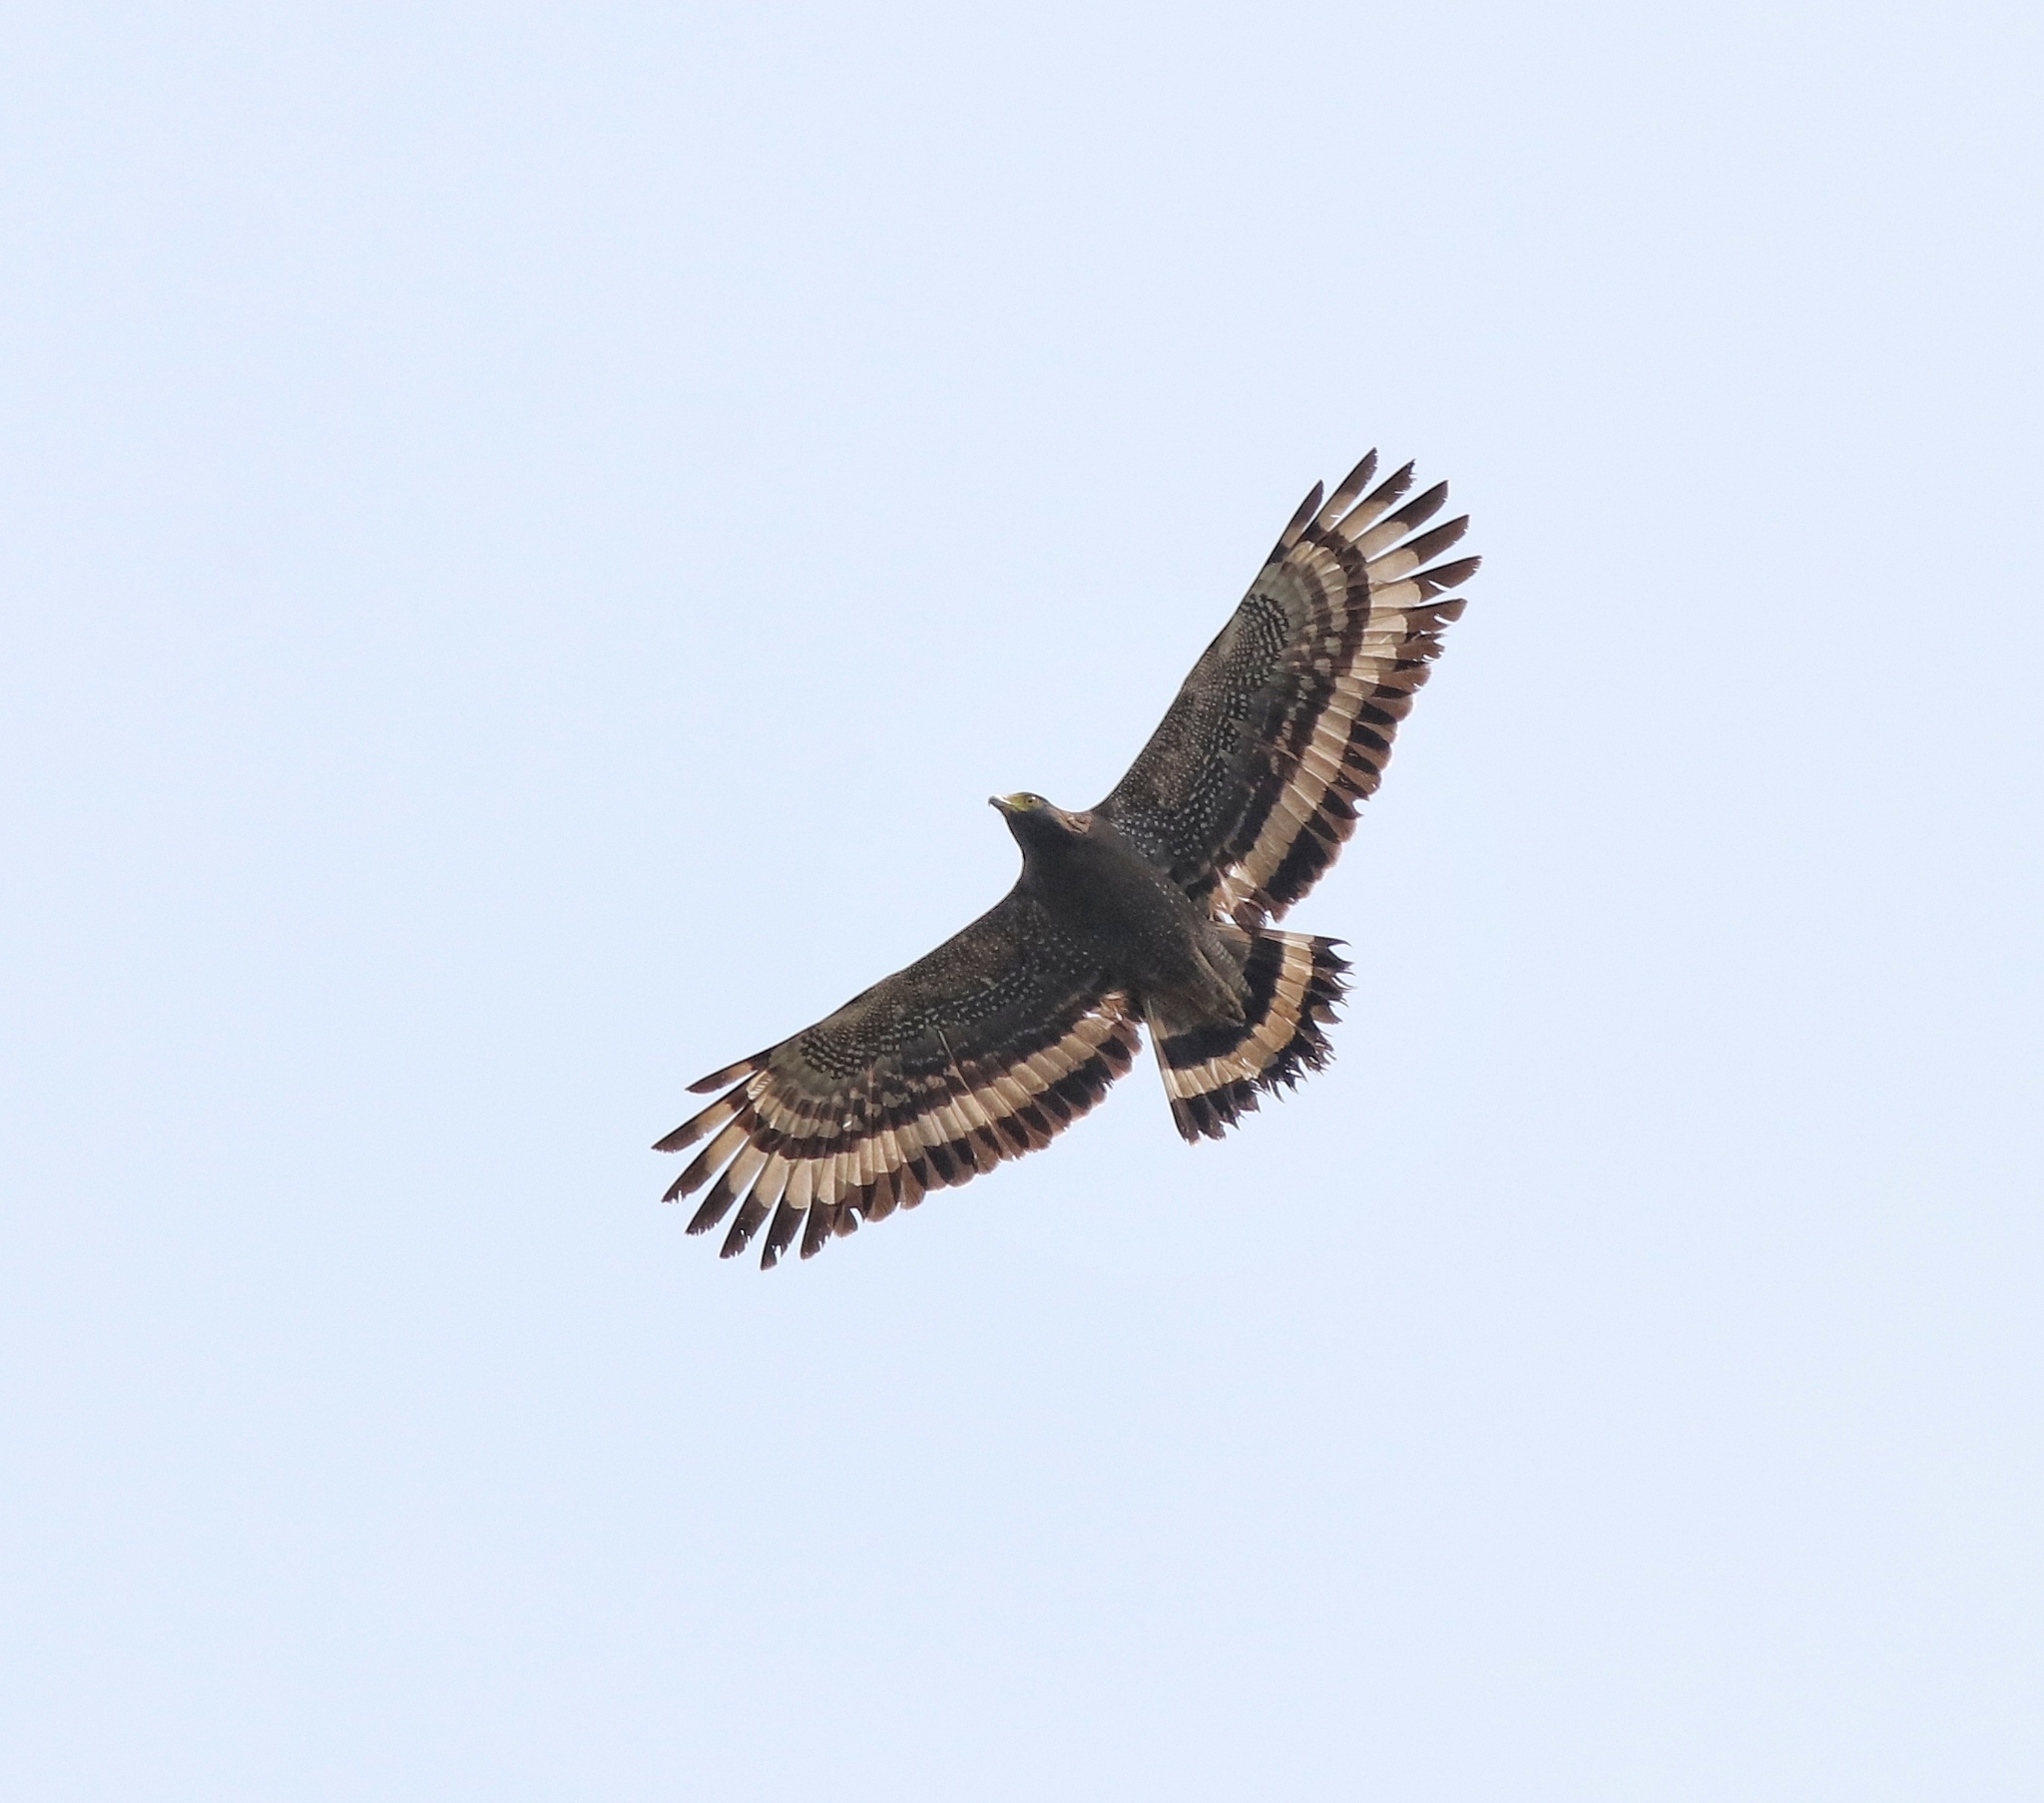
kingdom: Animalia
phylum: Chordata
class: Aves
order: Accipitriformes
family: Accipitridae
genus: Spilornis
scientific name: Spilornis cheela
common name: Crested serpent eagle
